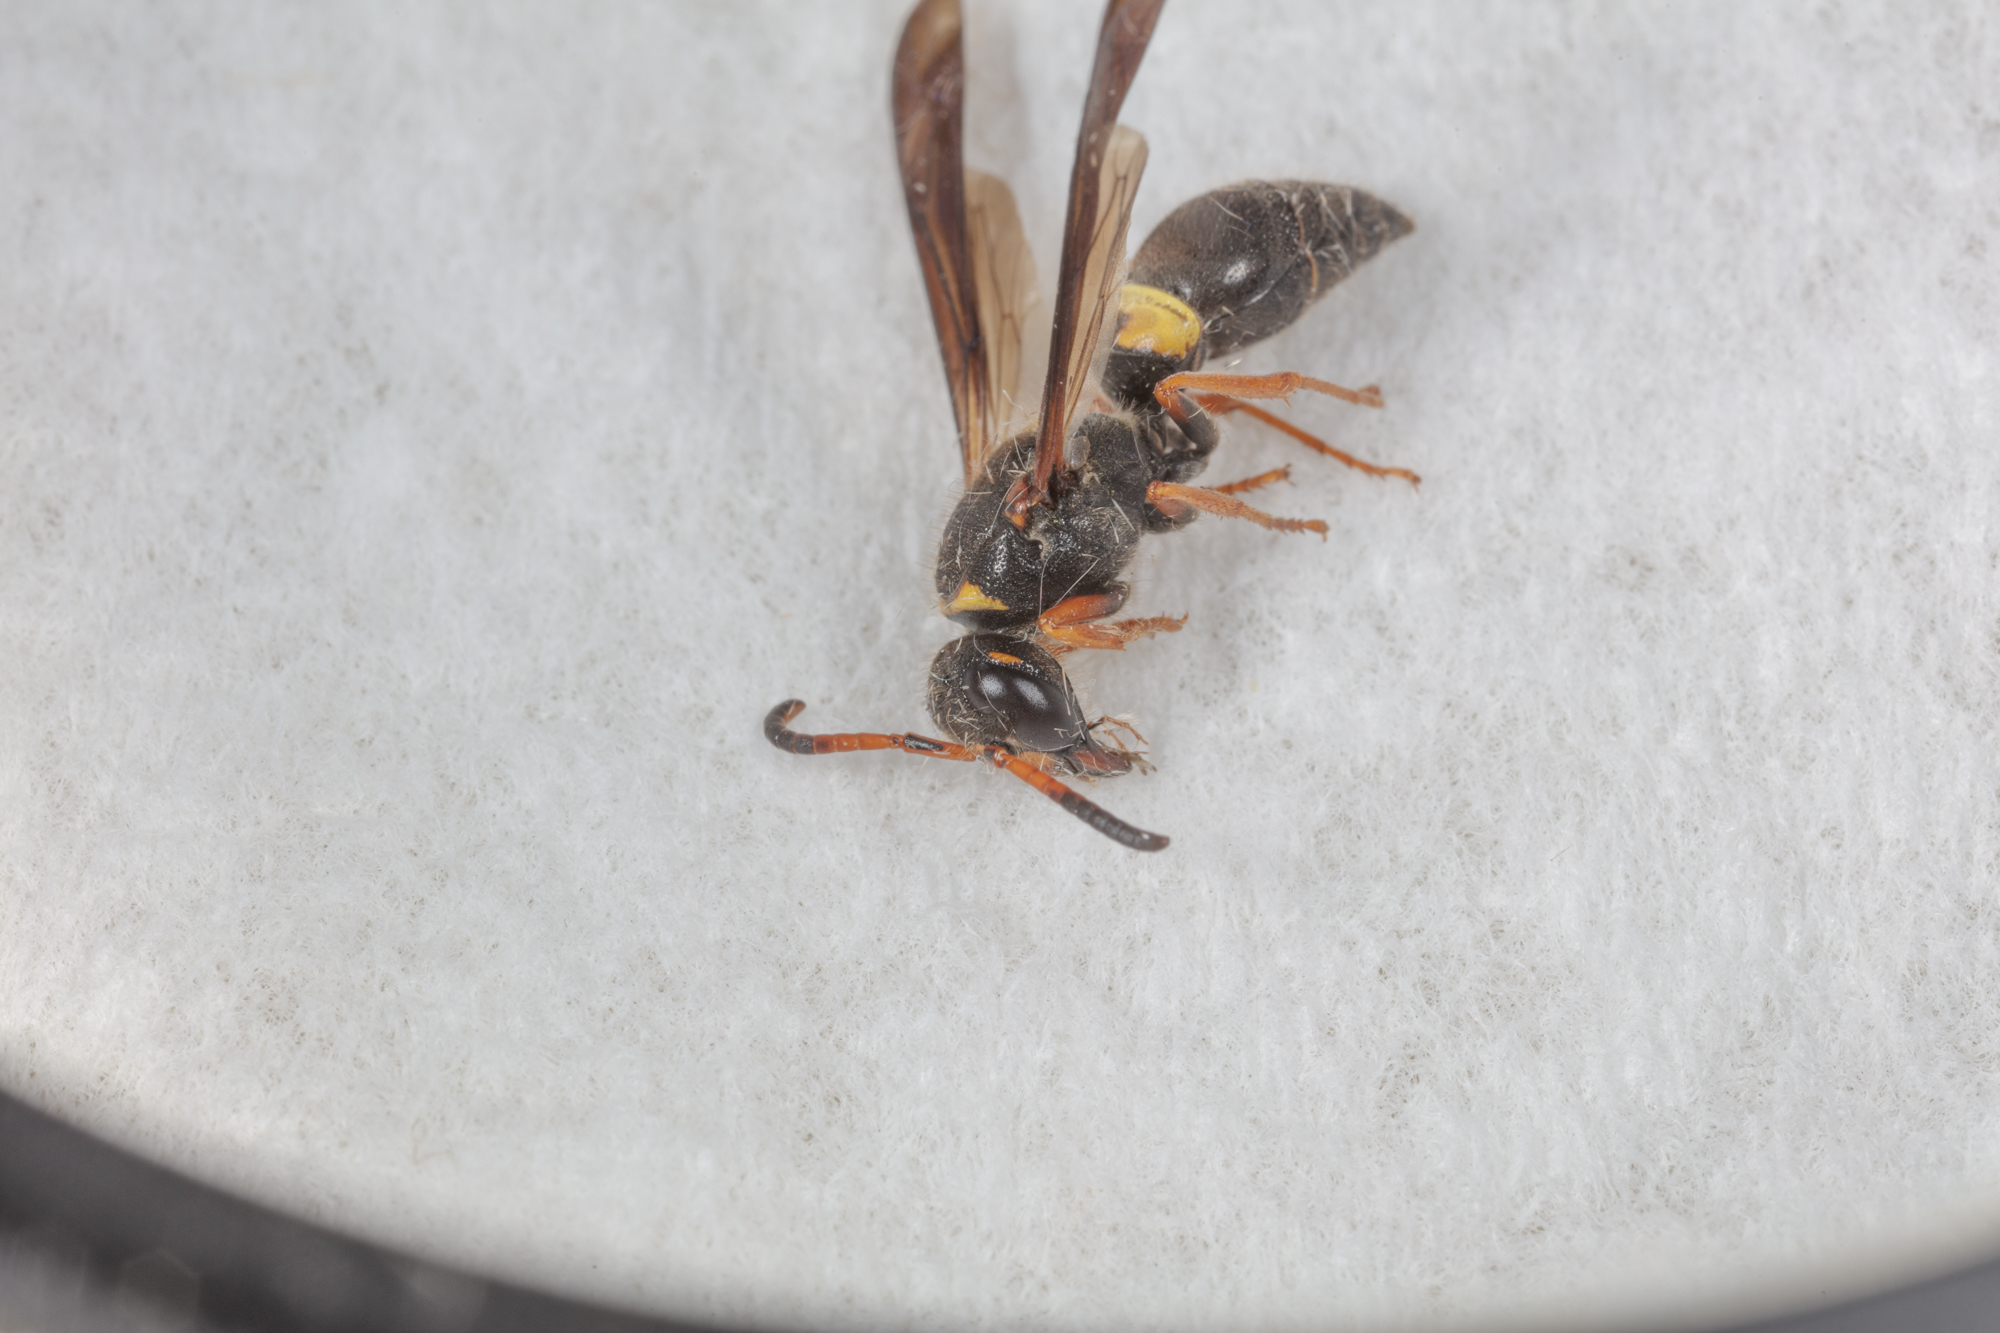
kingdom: Animalia
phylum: Arthropoda
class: Insecta
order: Hymenoptera
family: Vespidae
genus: Ancistrocerus
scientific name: Ancistrocerus unifasciatus
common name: One-banded mason wasp
